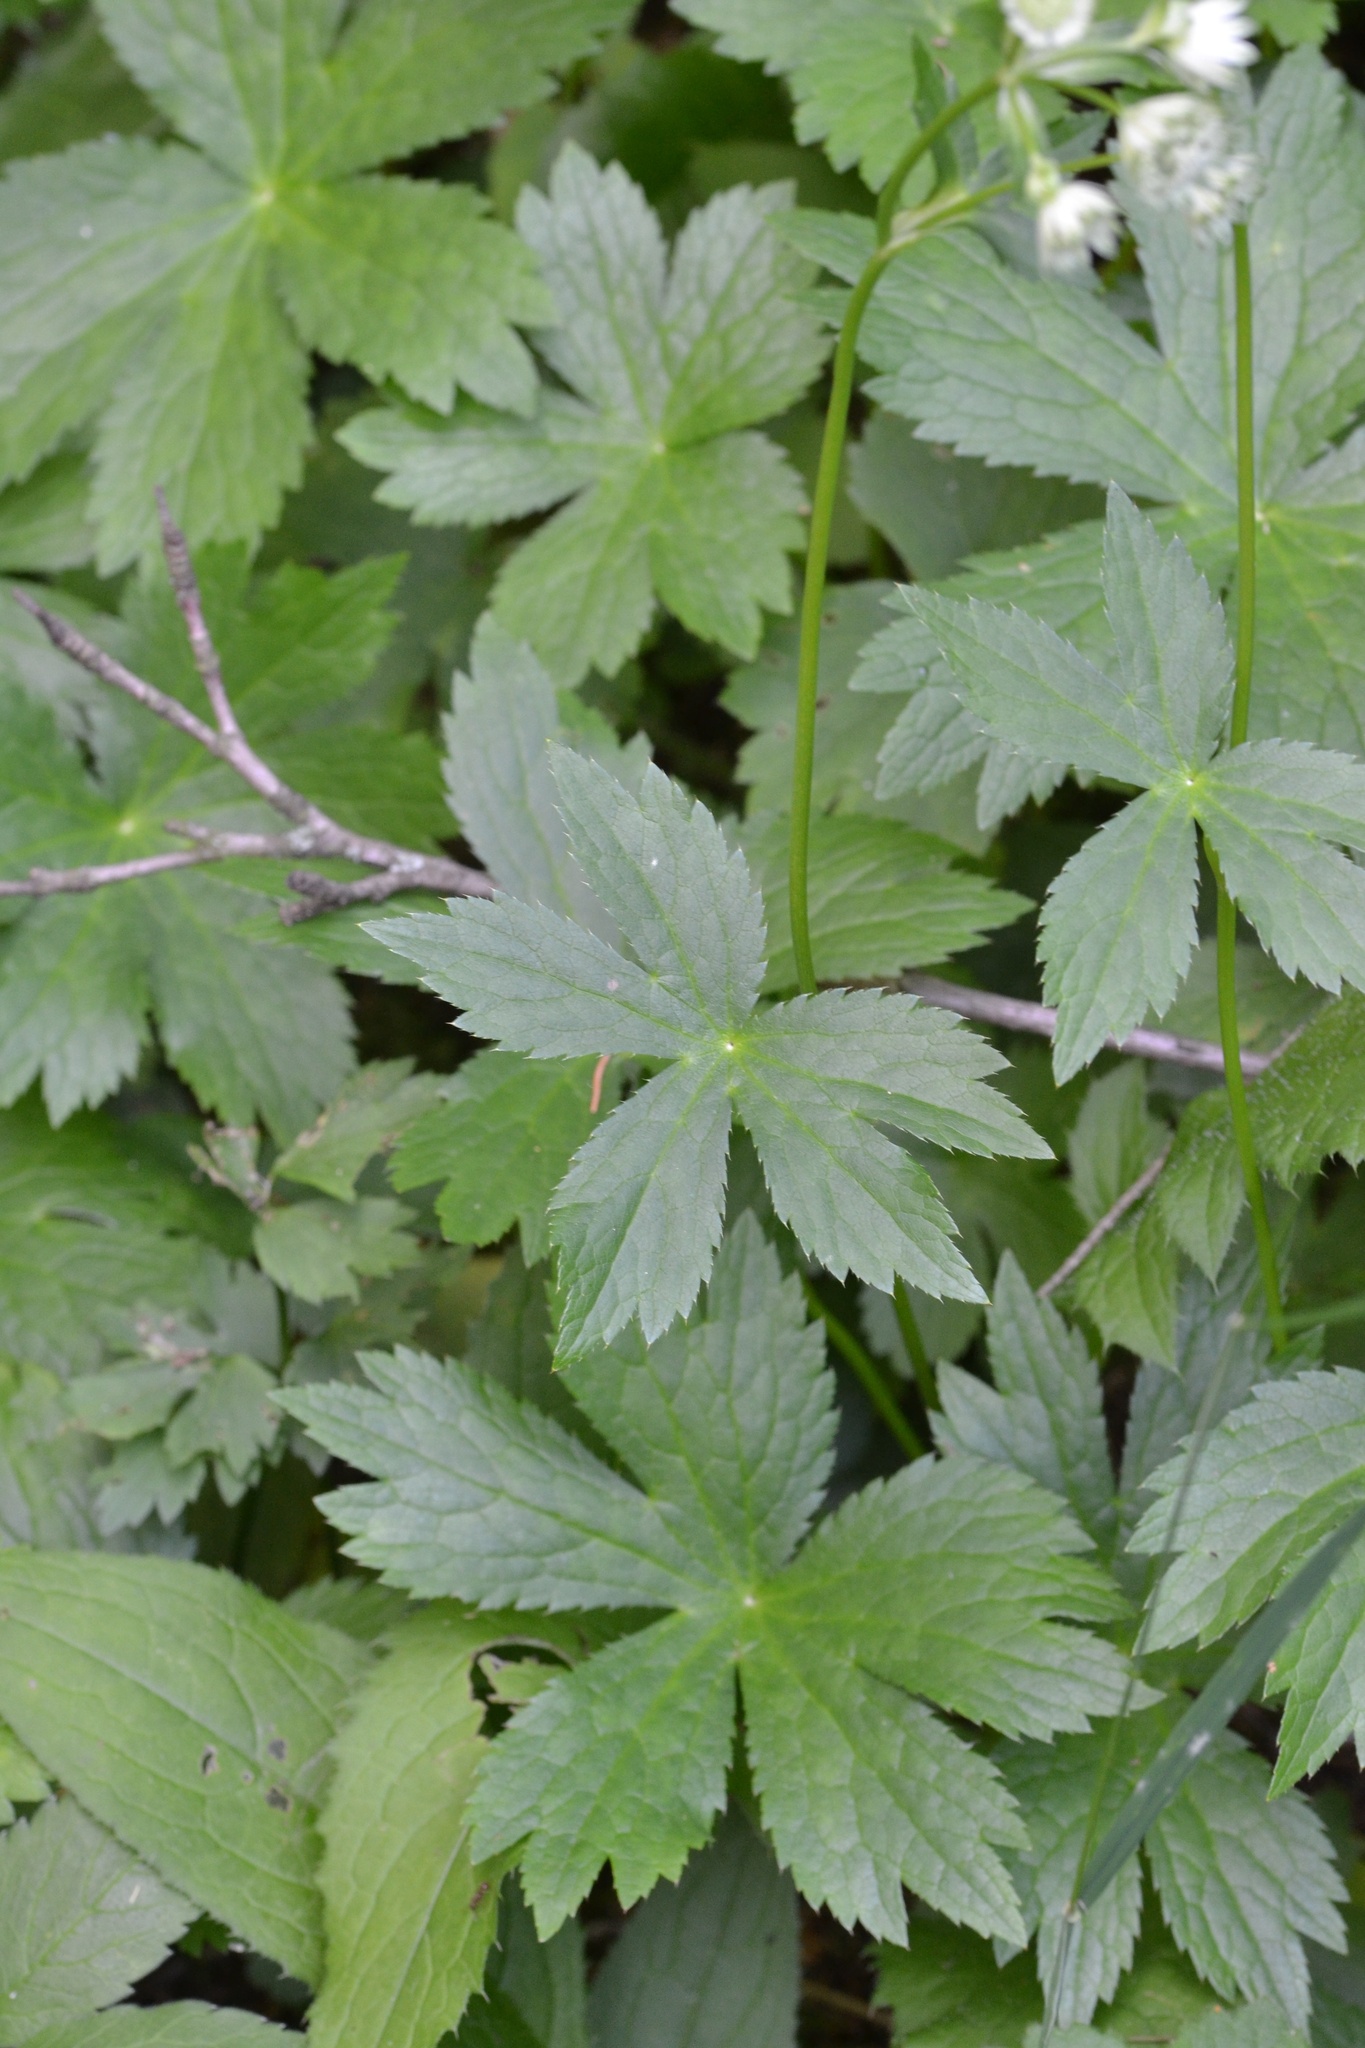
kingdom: Plantae
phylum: Tracheophyta
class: Magnoliopsida
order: Apiales
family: Apiaceae
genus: Astrantia
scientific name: Astrantia major
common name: Greater masterwort
